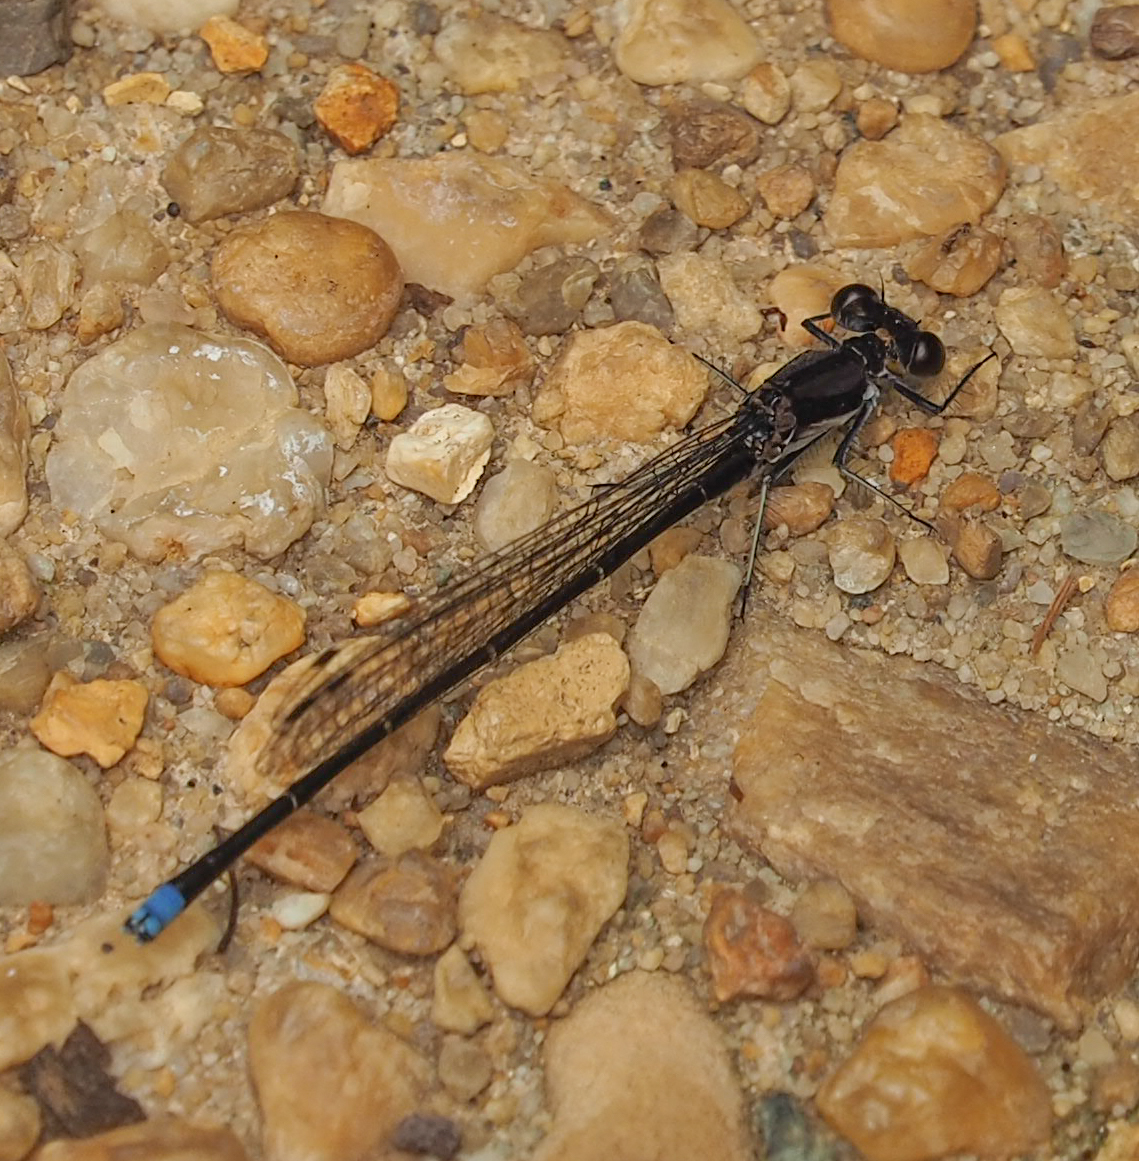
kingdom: Animalia
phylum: Arthropoda
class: Insecta
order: Odonata
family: Coenagrionidae
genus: Argia
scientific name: Argia tibialis
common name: Blue-tipped dancer
